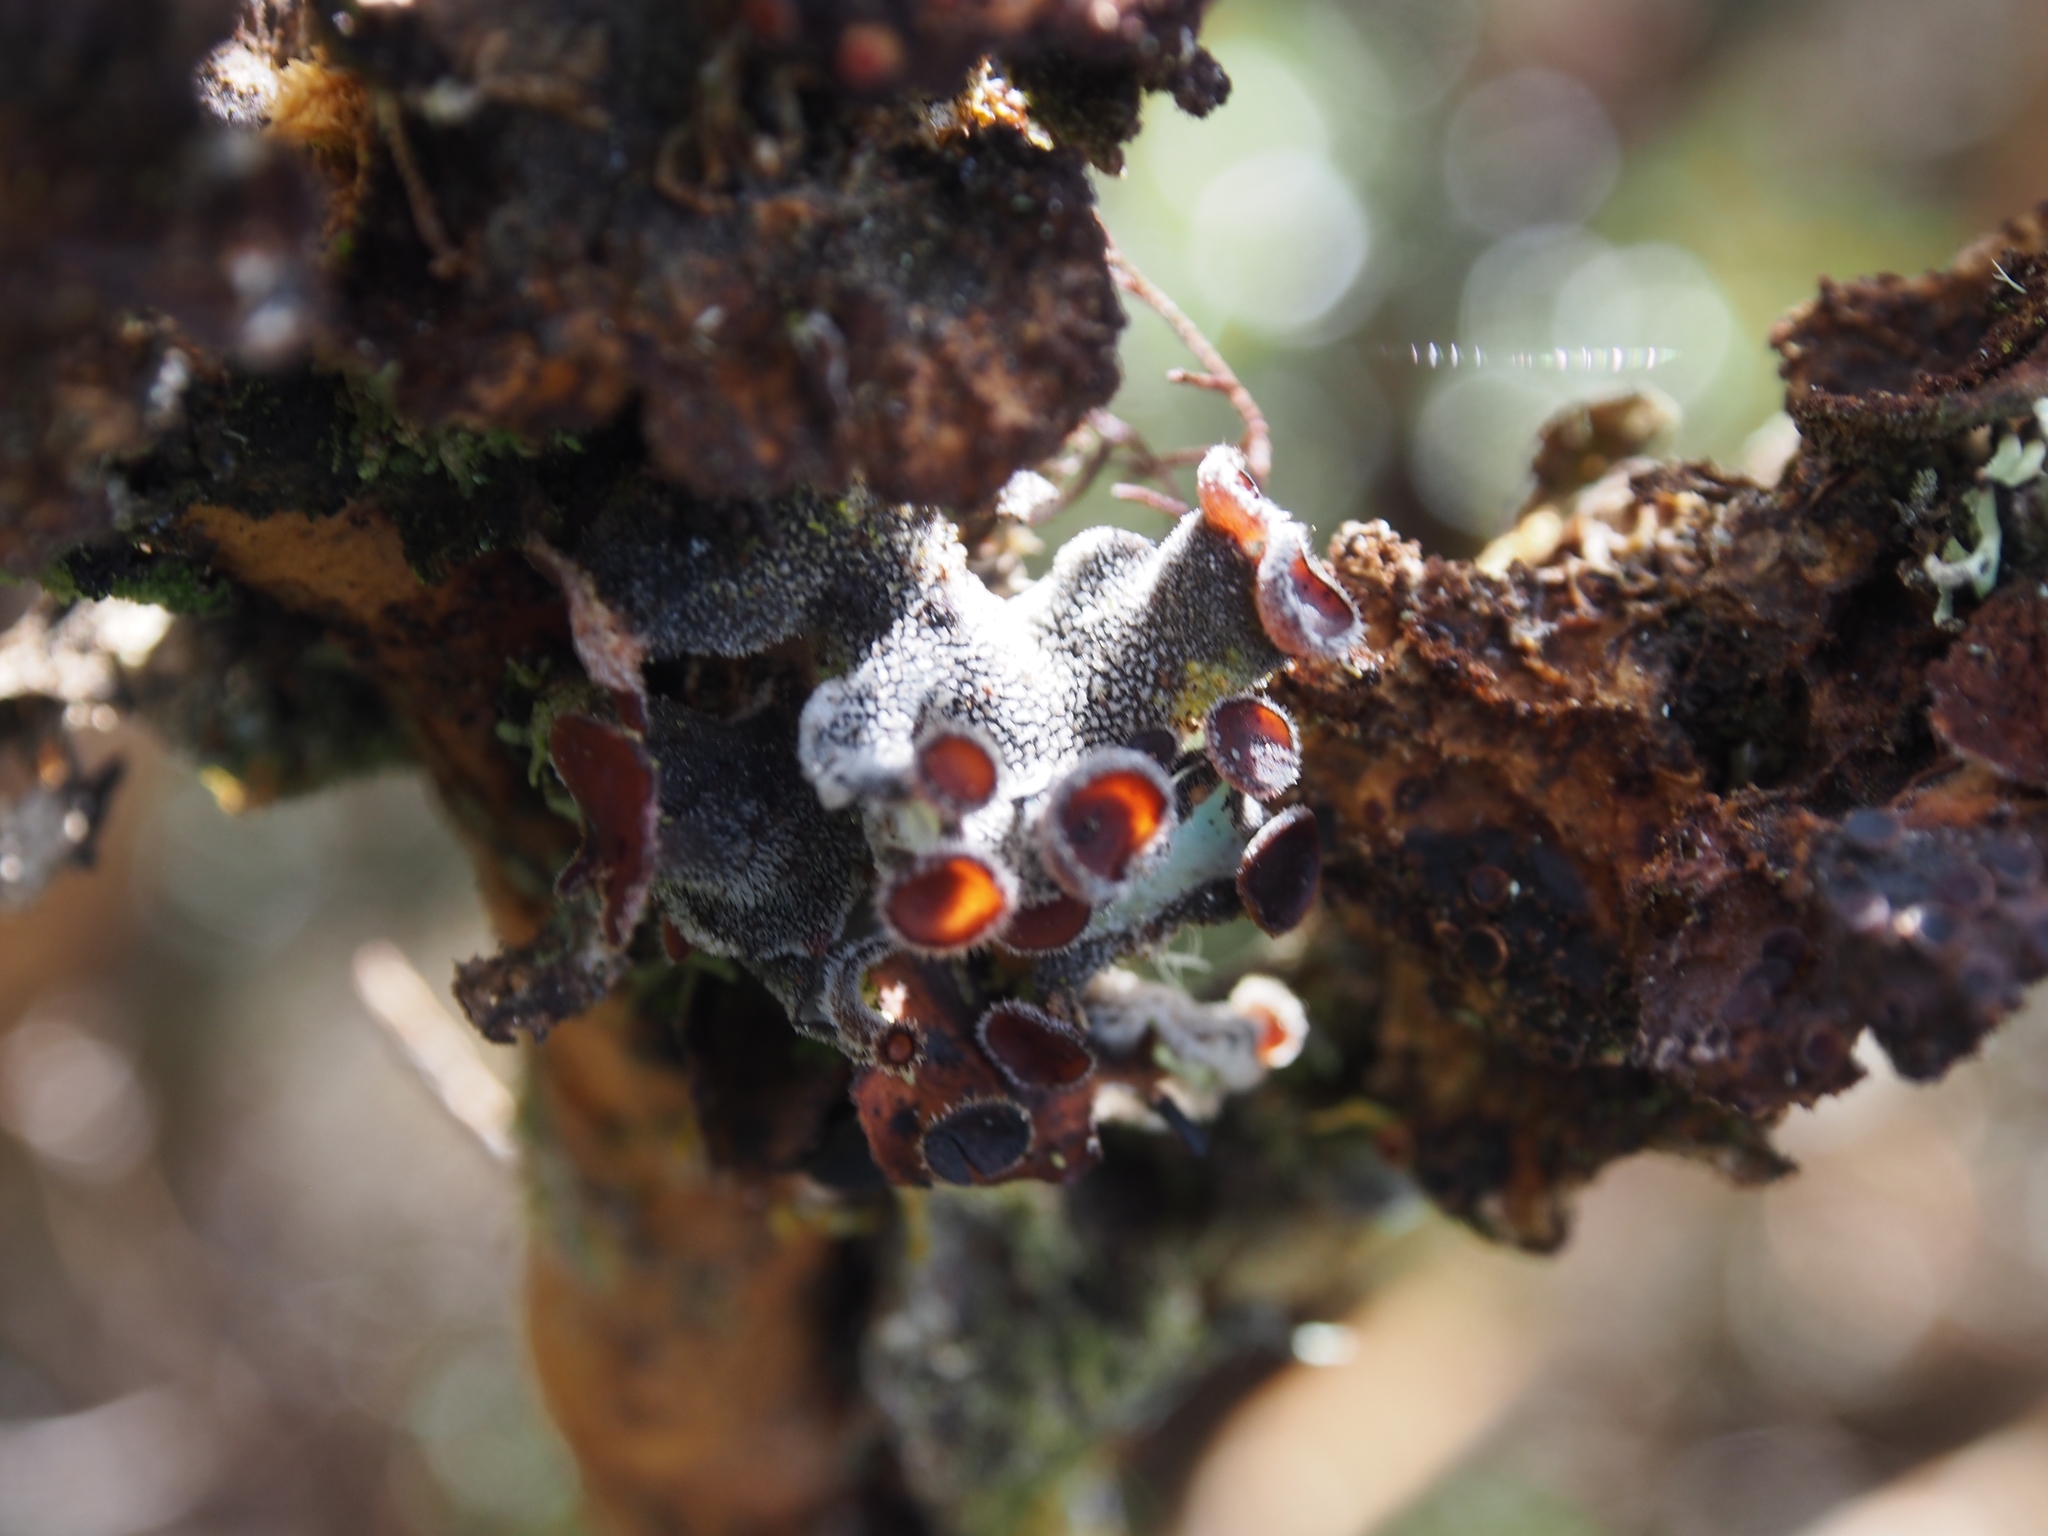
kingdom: Fungi
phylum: Ascomycota
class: Lecanoromycetes
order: Peltigerales
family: Pannariaceae
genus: Erioderma
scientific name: Erioderma leylandii
